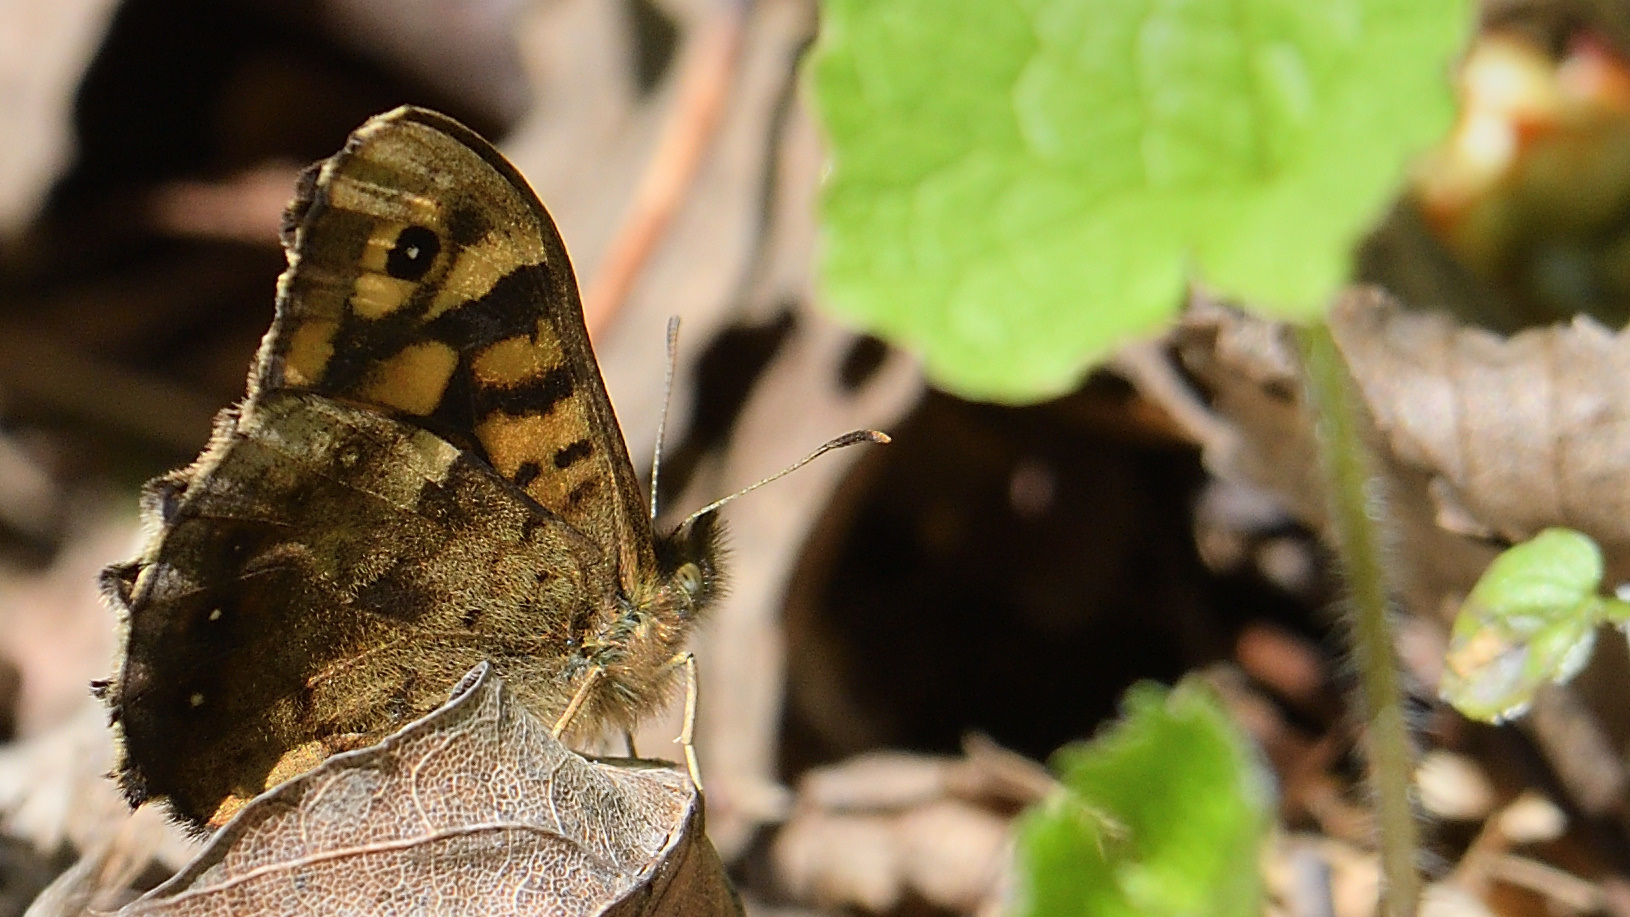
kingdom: Animalia
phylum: Arthropoda
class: Insecta
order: Lepidoptera
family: Nymphalidae
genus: Pararge
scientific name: Pararge aegeria
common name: Speckled wood
